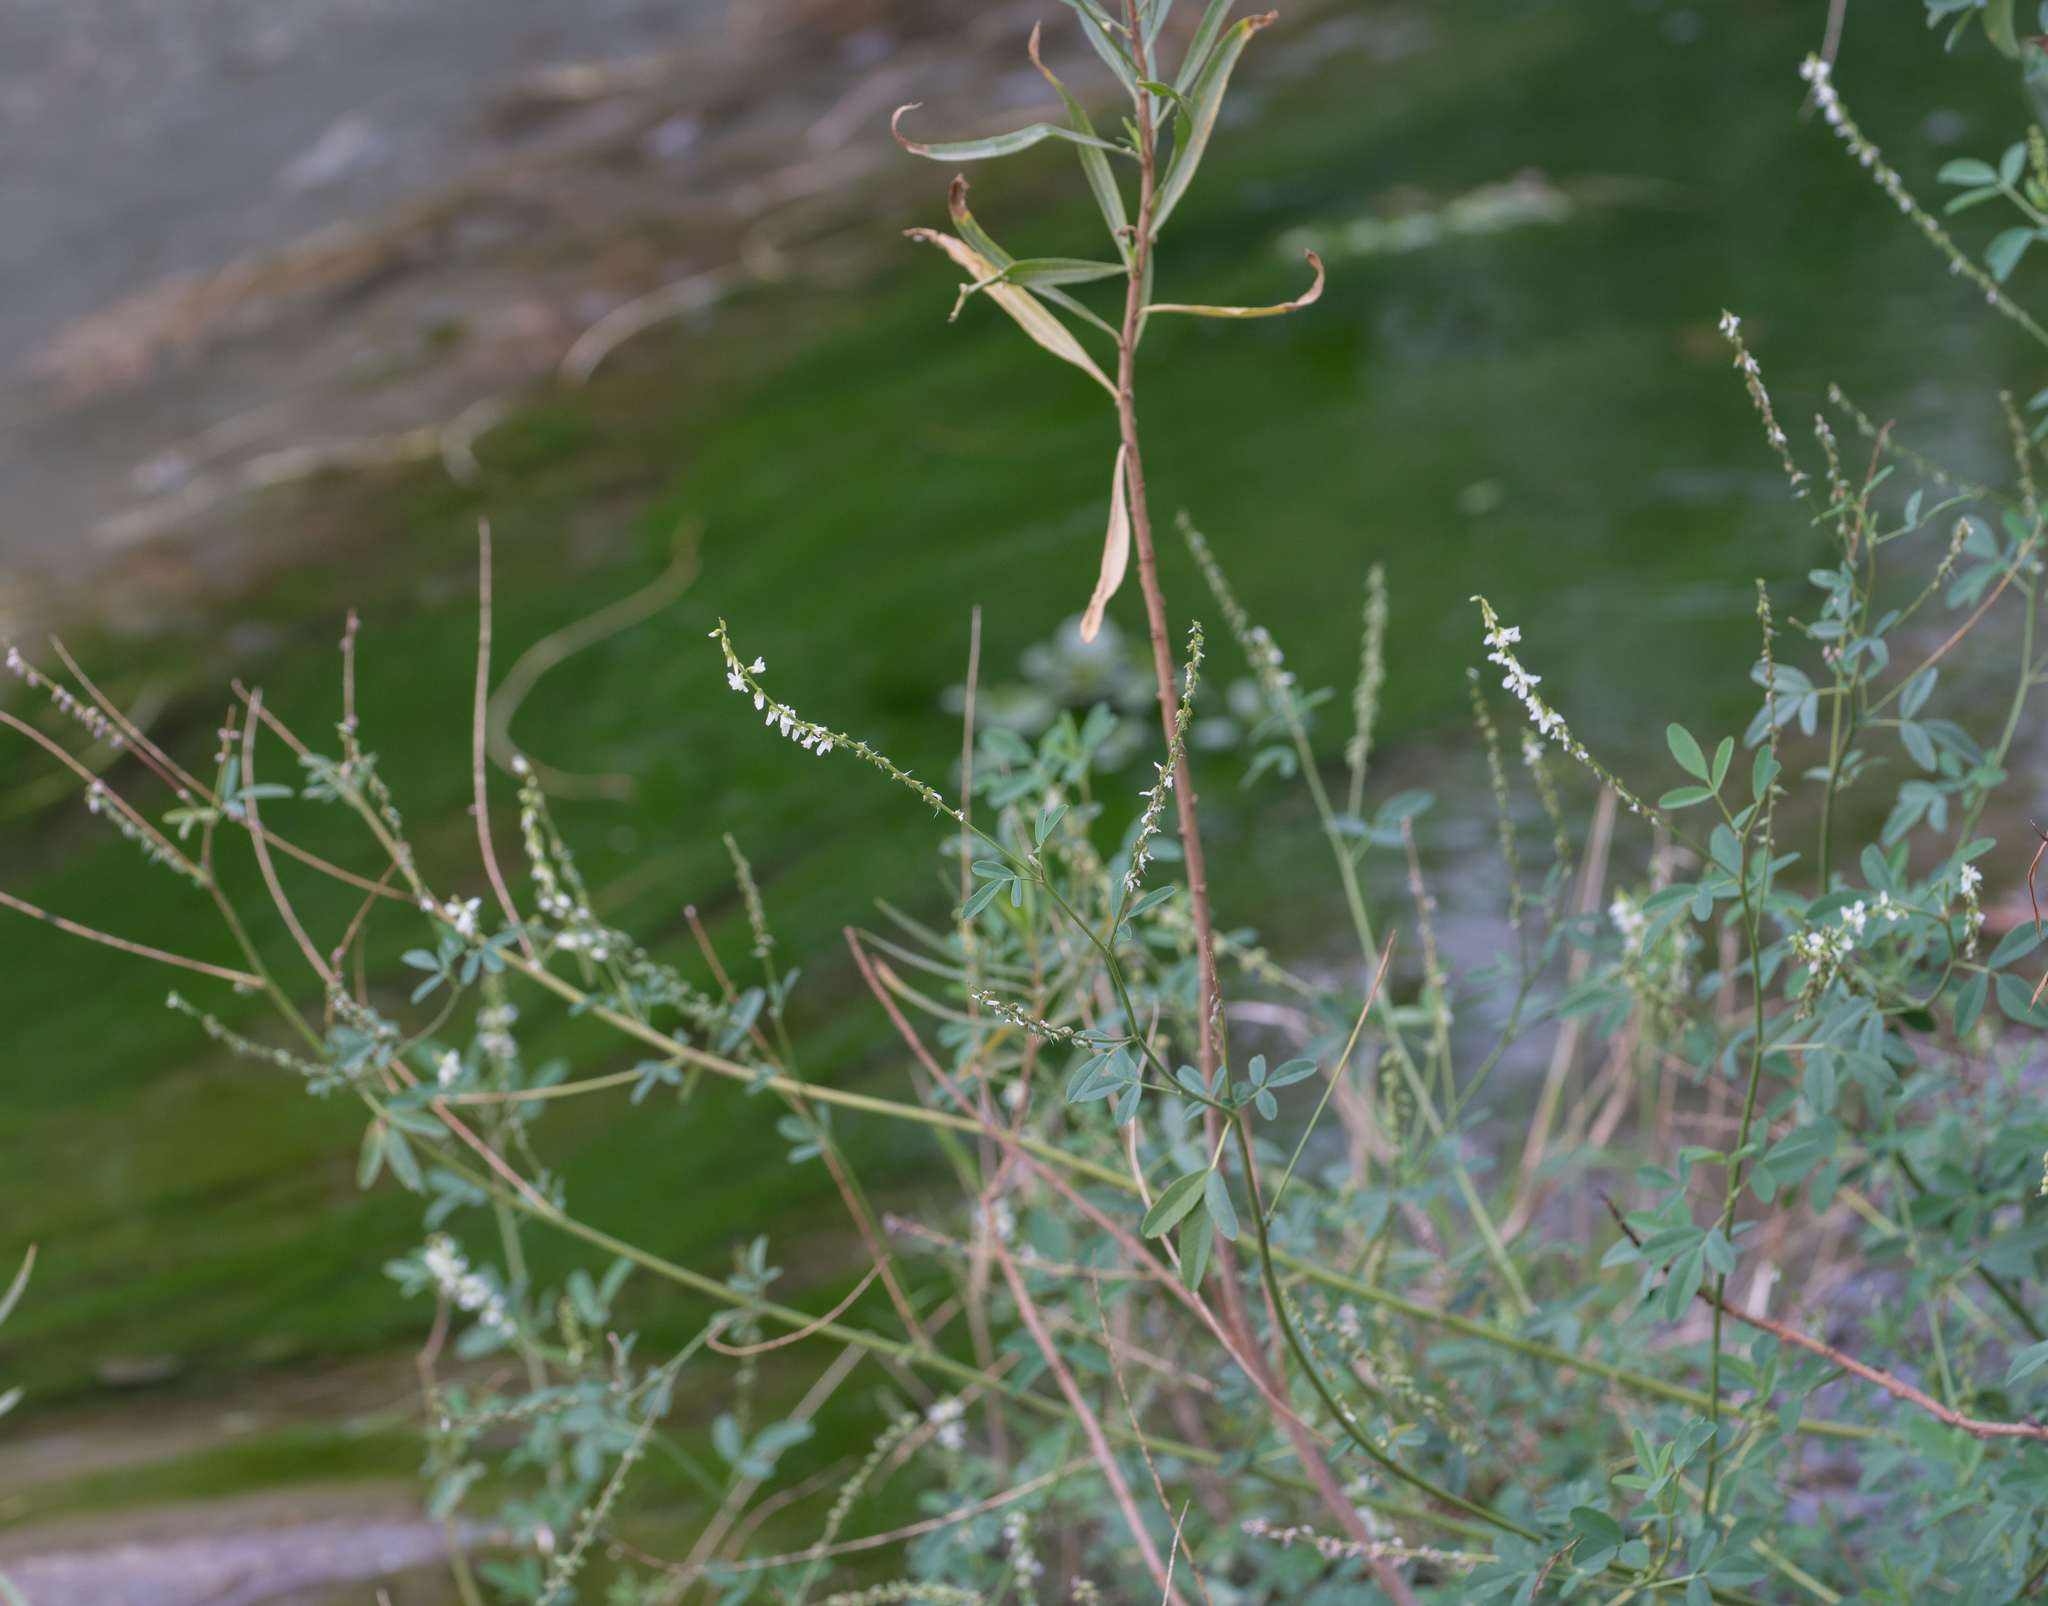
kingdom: Plantae
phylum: Tracheophyta
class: Magnoliopsida
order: Fabales
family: Fabaceae
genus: Melilotus
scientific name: Melilotus albus
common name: White melilot
